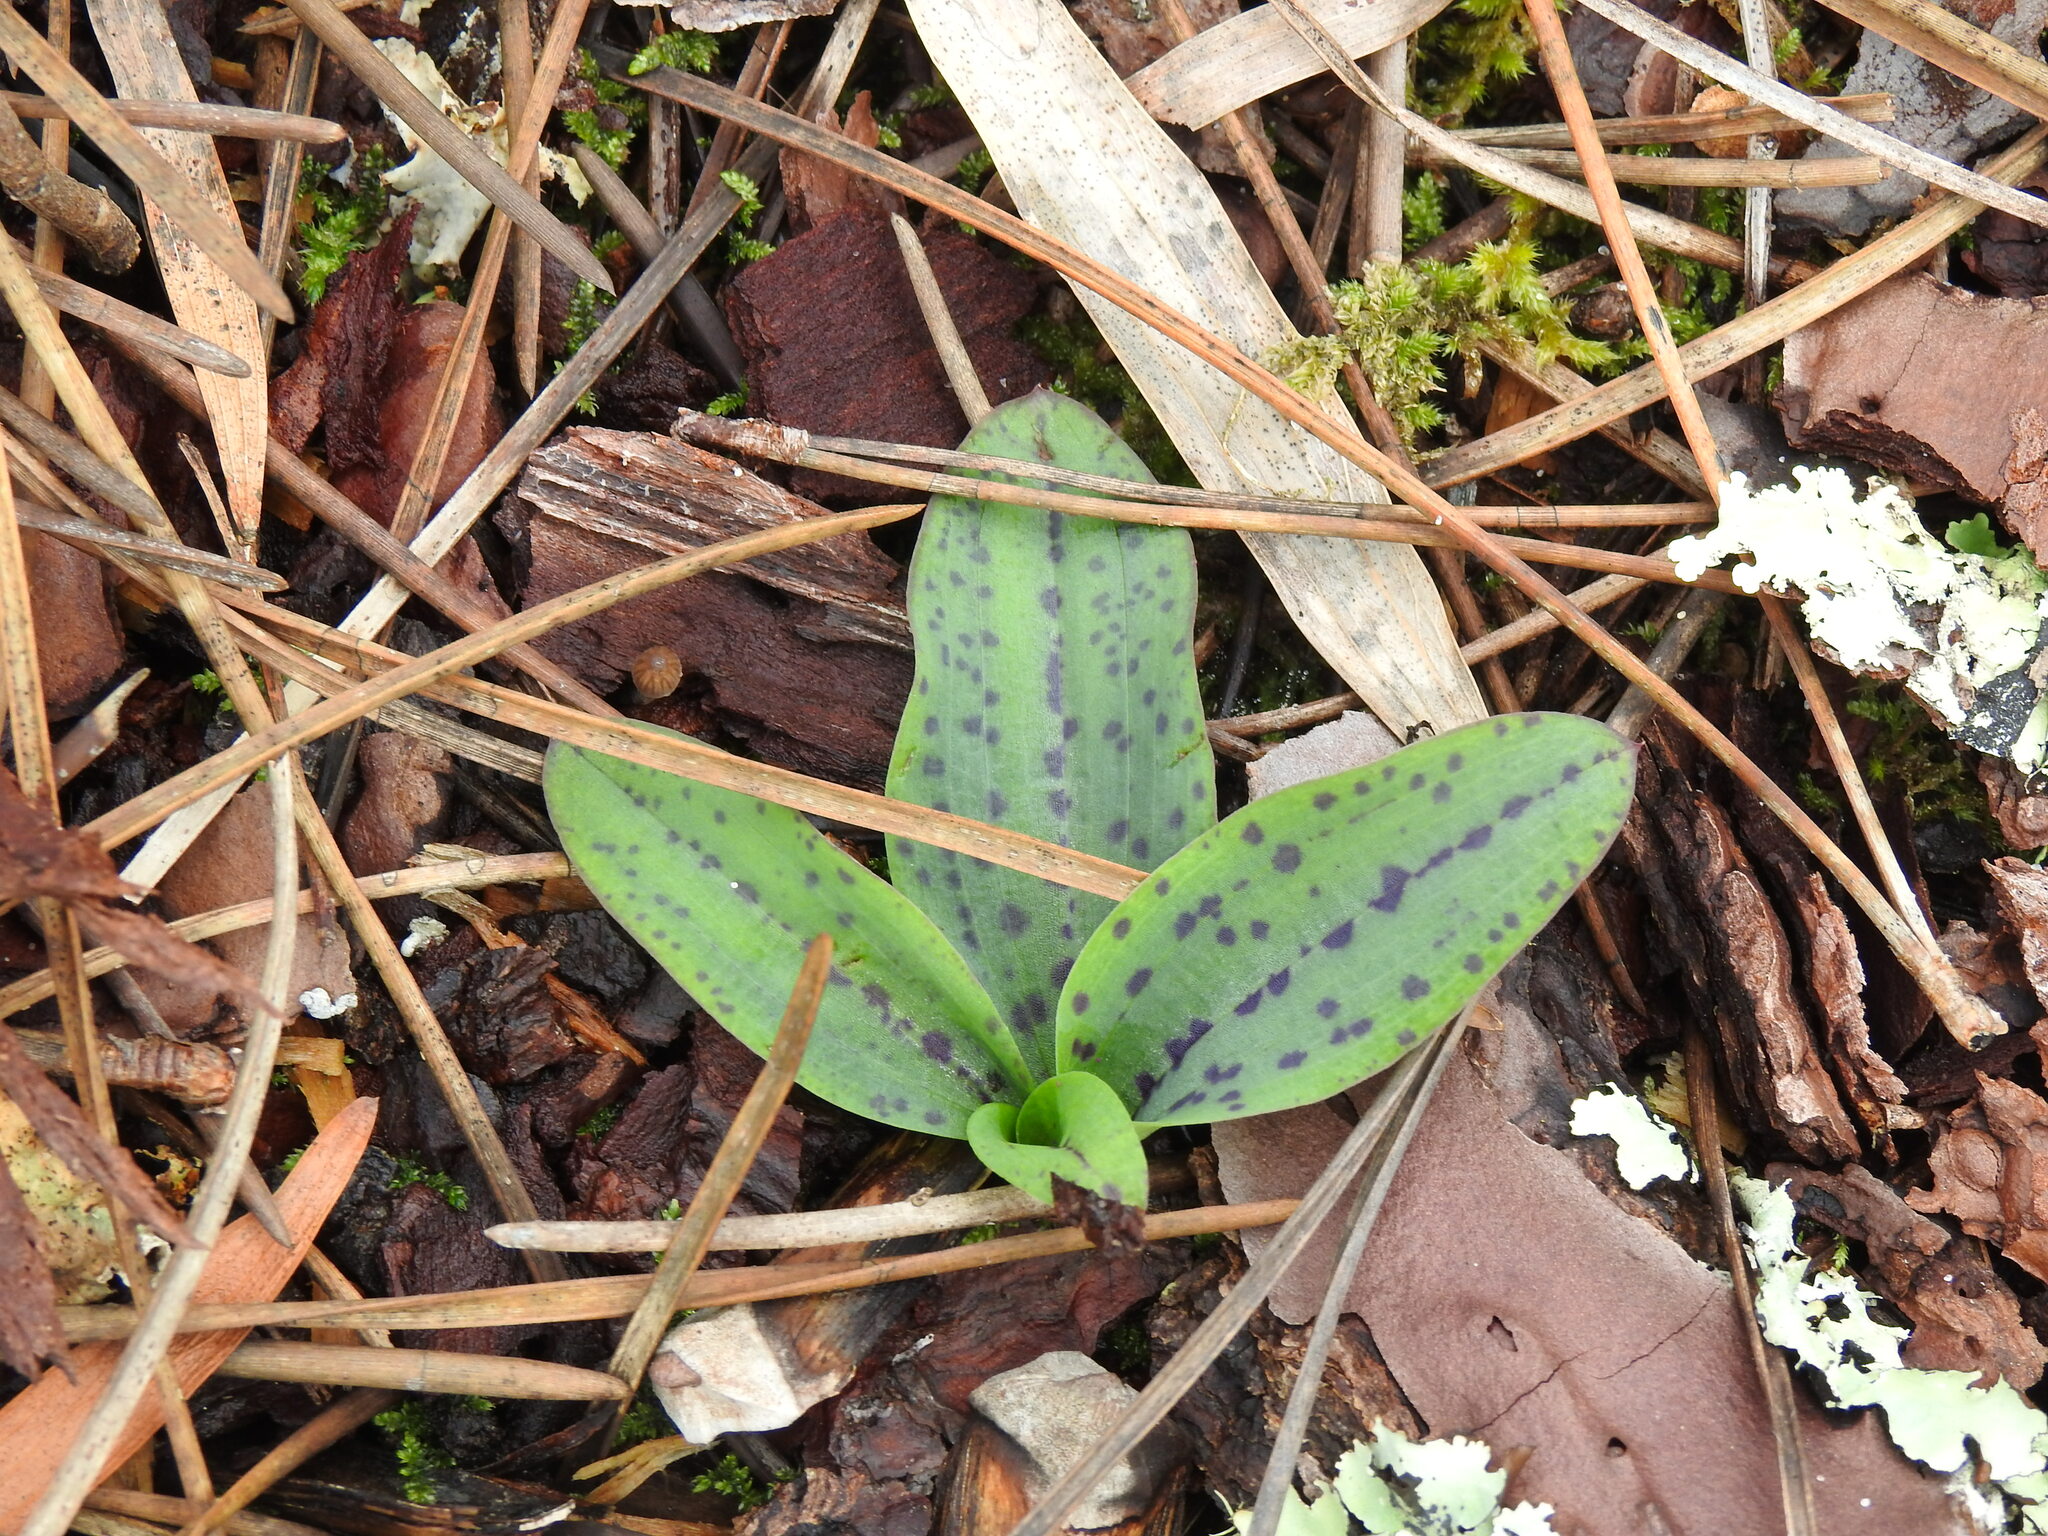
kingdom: Plantae
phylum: Tracheophyta
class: Liliopsida
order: Asparagales
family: Orchidaceae
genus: Neotinea
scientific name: Neotinea maculata
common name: Dense-flowered orchid
